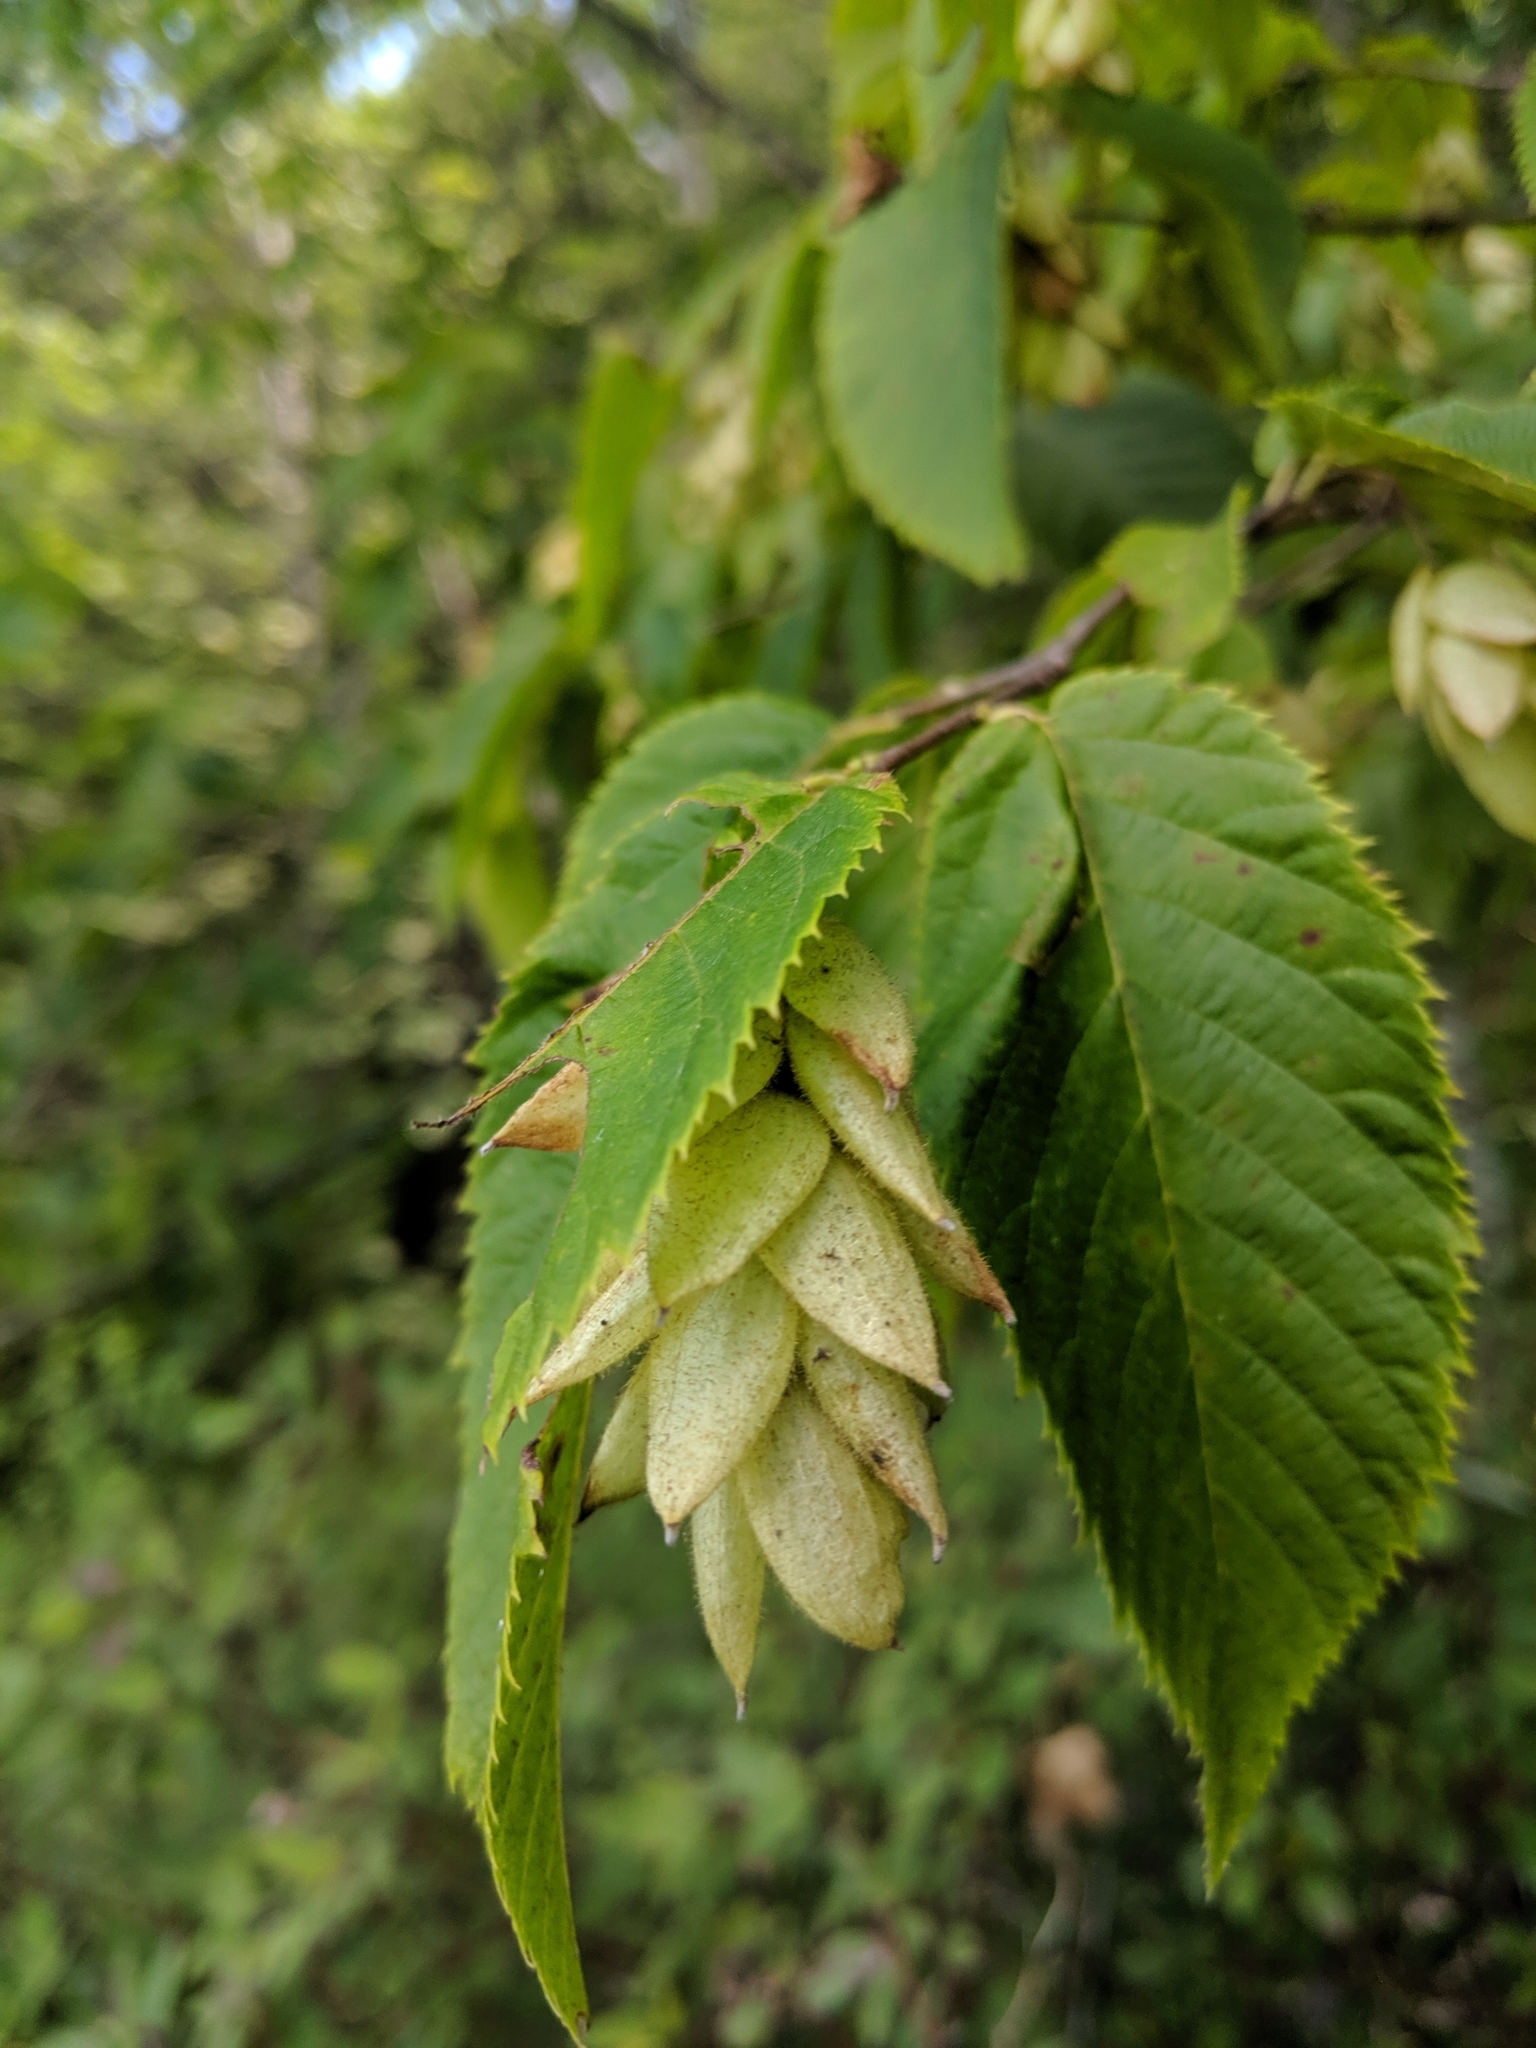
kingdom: Plantae
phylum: Tracheophyta
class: Magnoliopsida
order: Fagales
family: Betulaceae
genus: Ostrya
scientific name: Ostrya virginiana
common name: Ironwood
